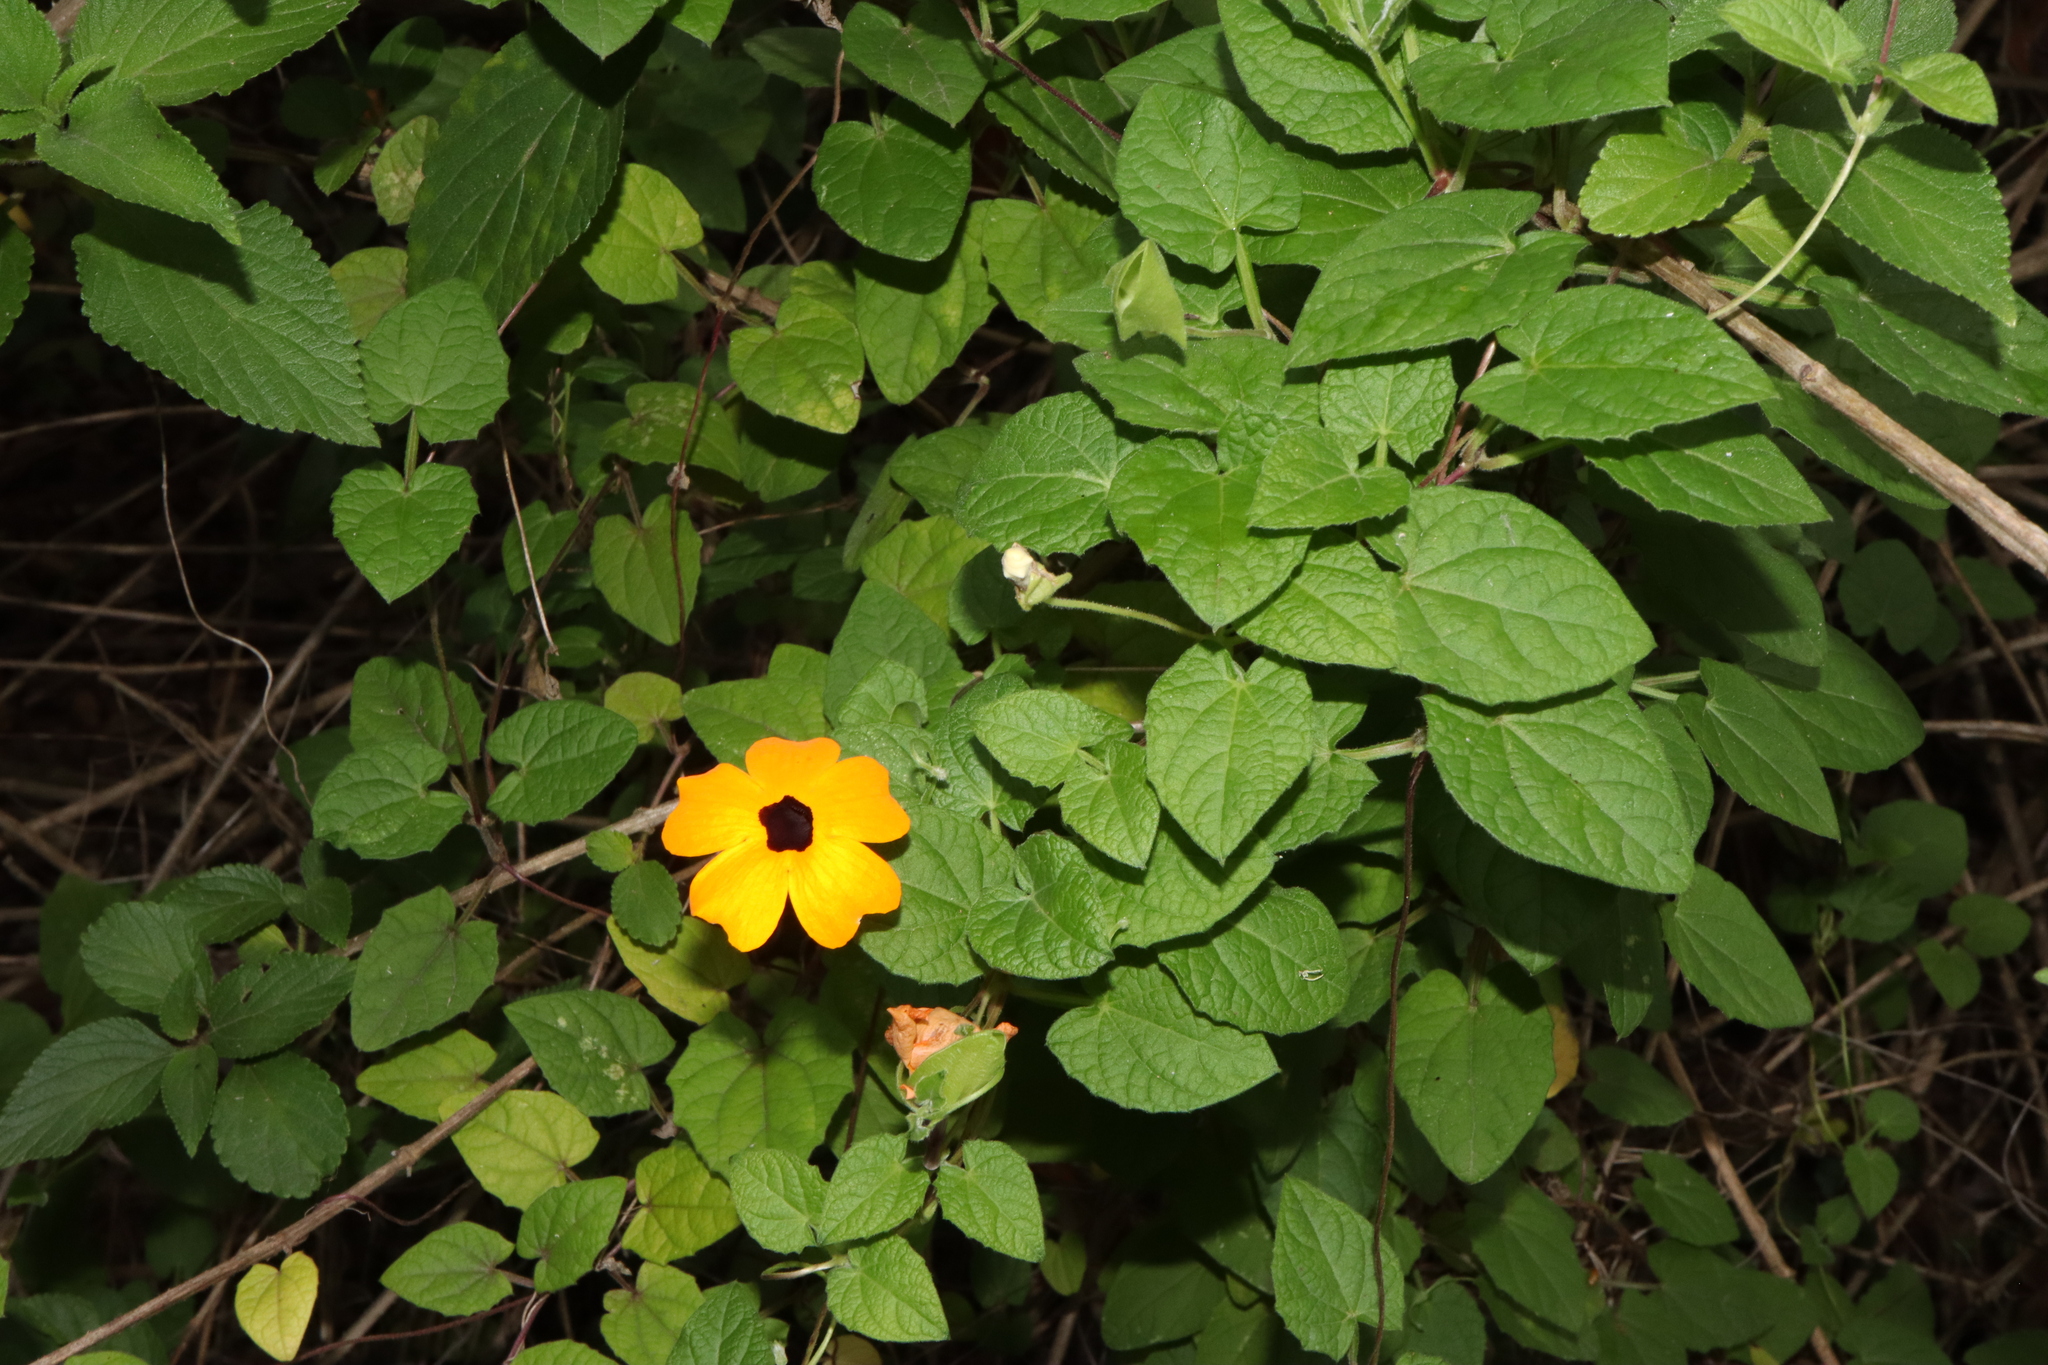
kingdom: Plantae
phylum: Tracheophyta
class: Magnoliopsida
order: Lamiales
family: Acanthaceae
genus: Thunbergia
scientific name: Thunbergia alata
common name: Blackeyed susan vine
